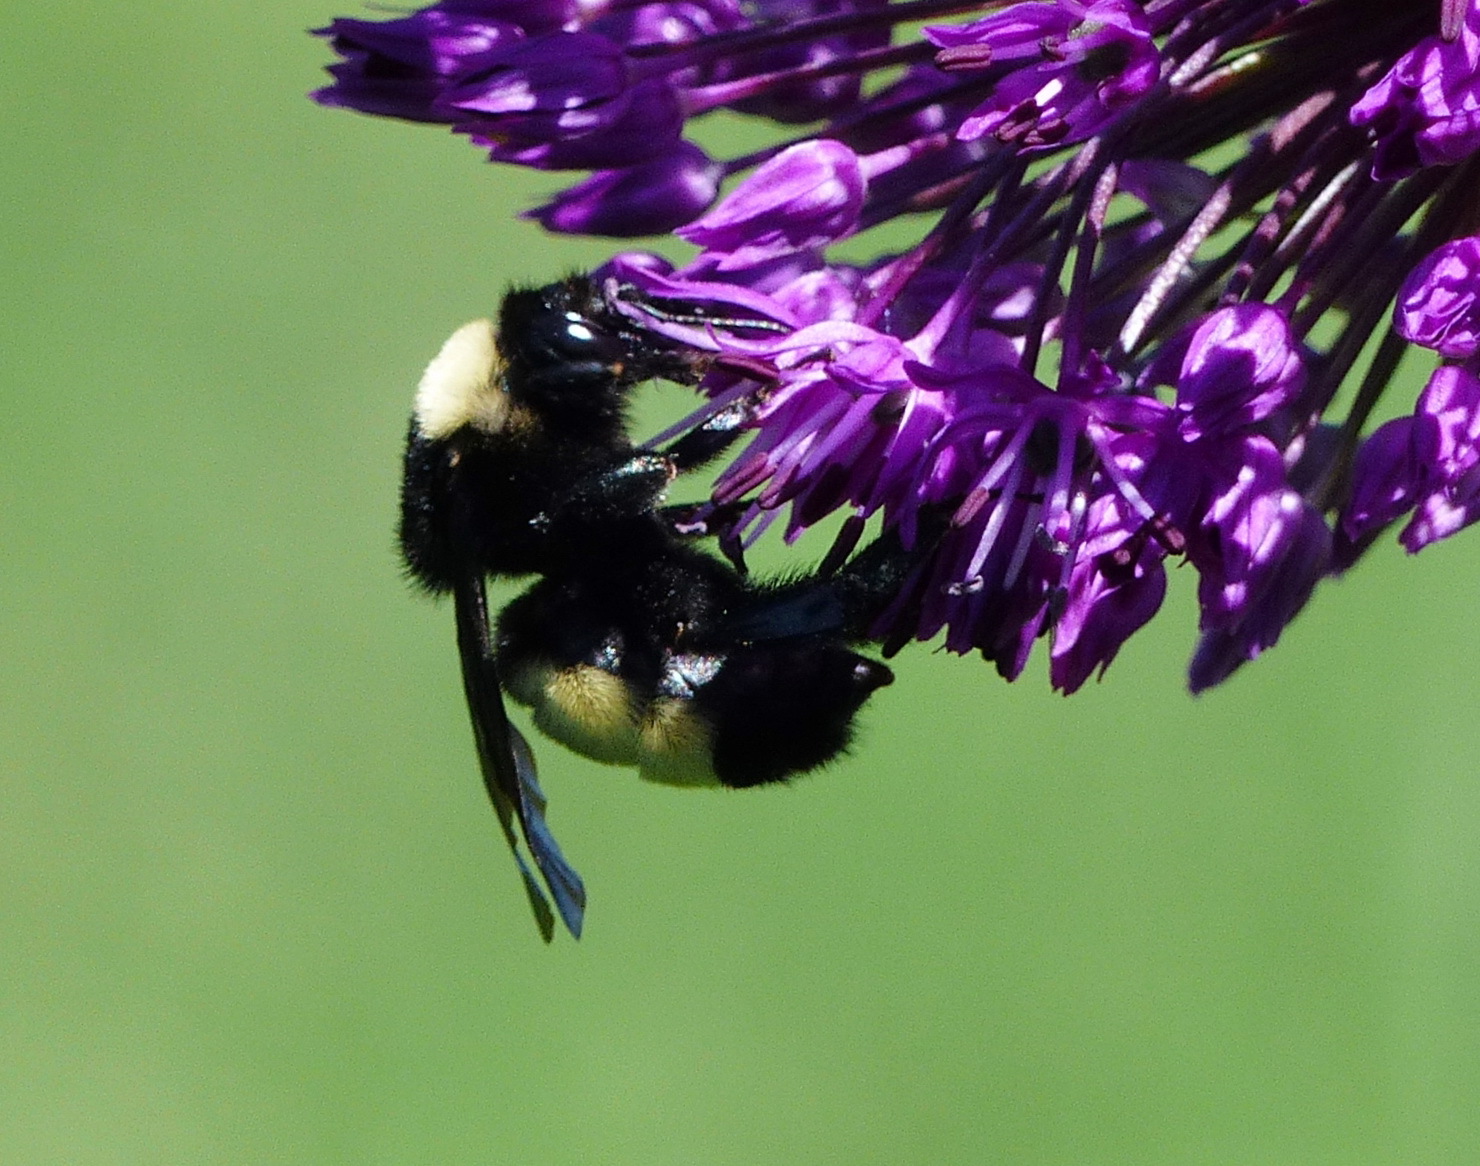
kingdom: Animalia
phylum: Arthropoda
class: Insecta
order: Hymenoptera
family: Apidae
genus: Bombus
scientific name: Bombus pensylvanicus
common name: Bumble bee
